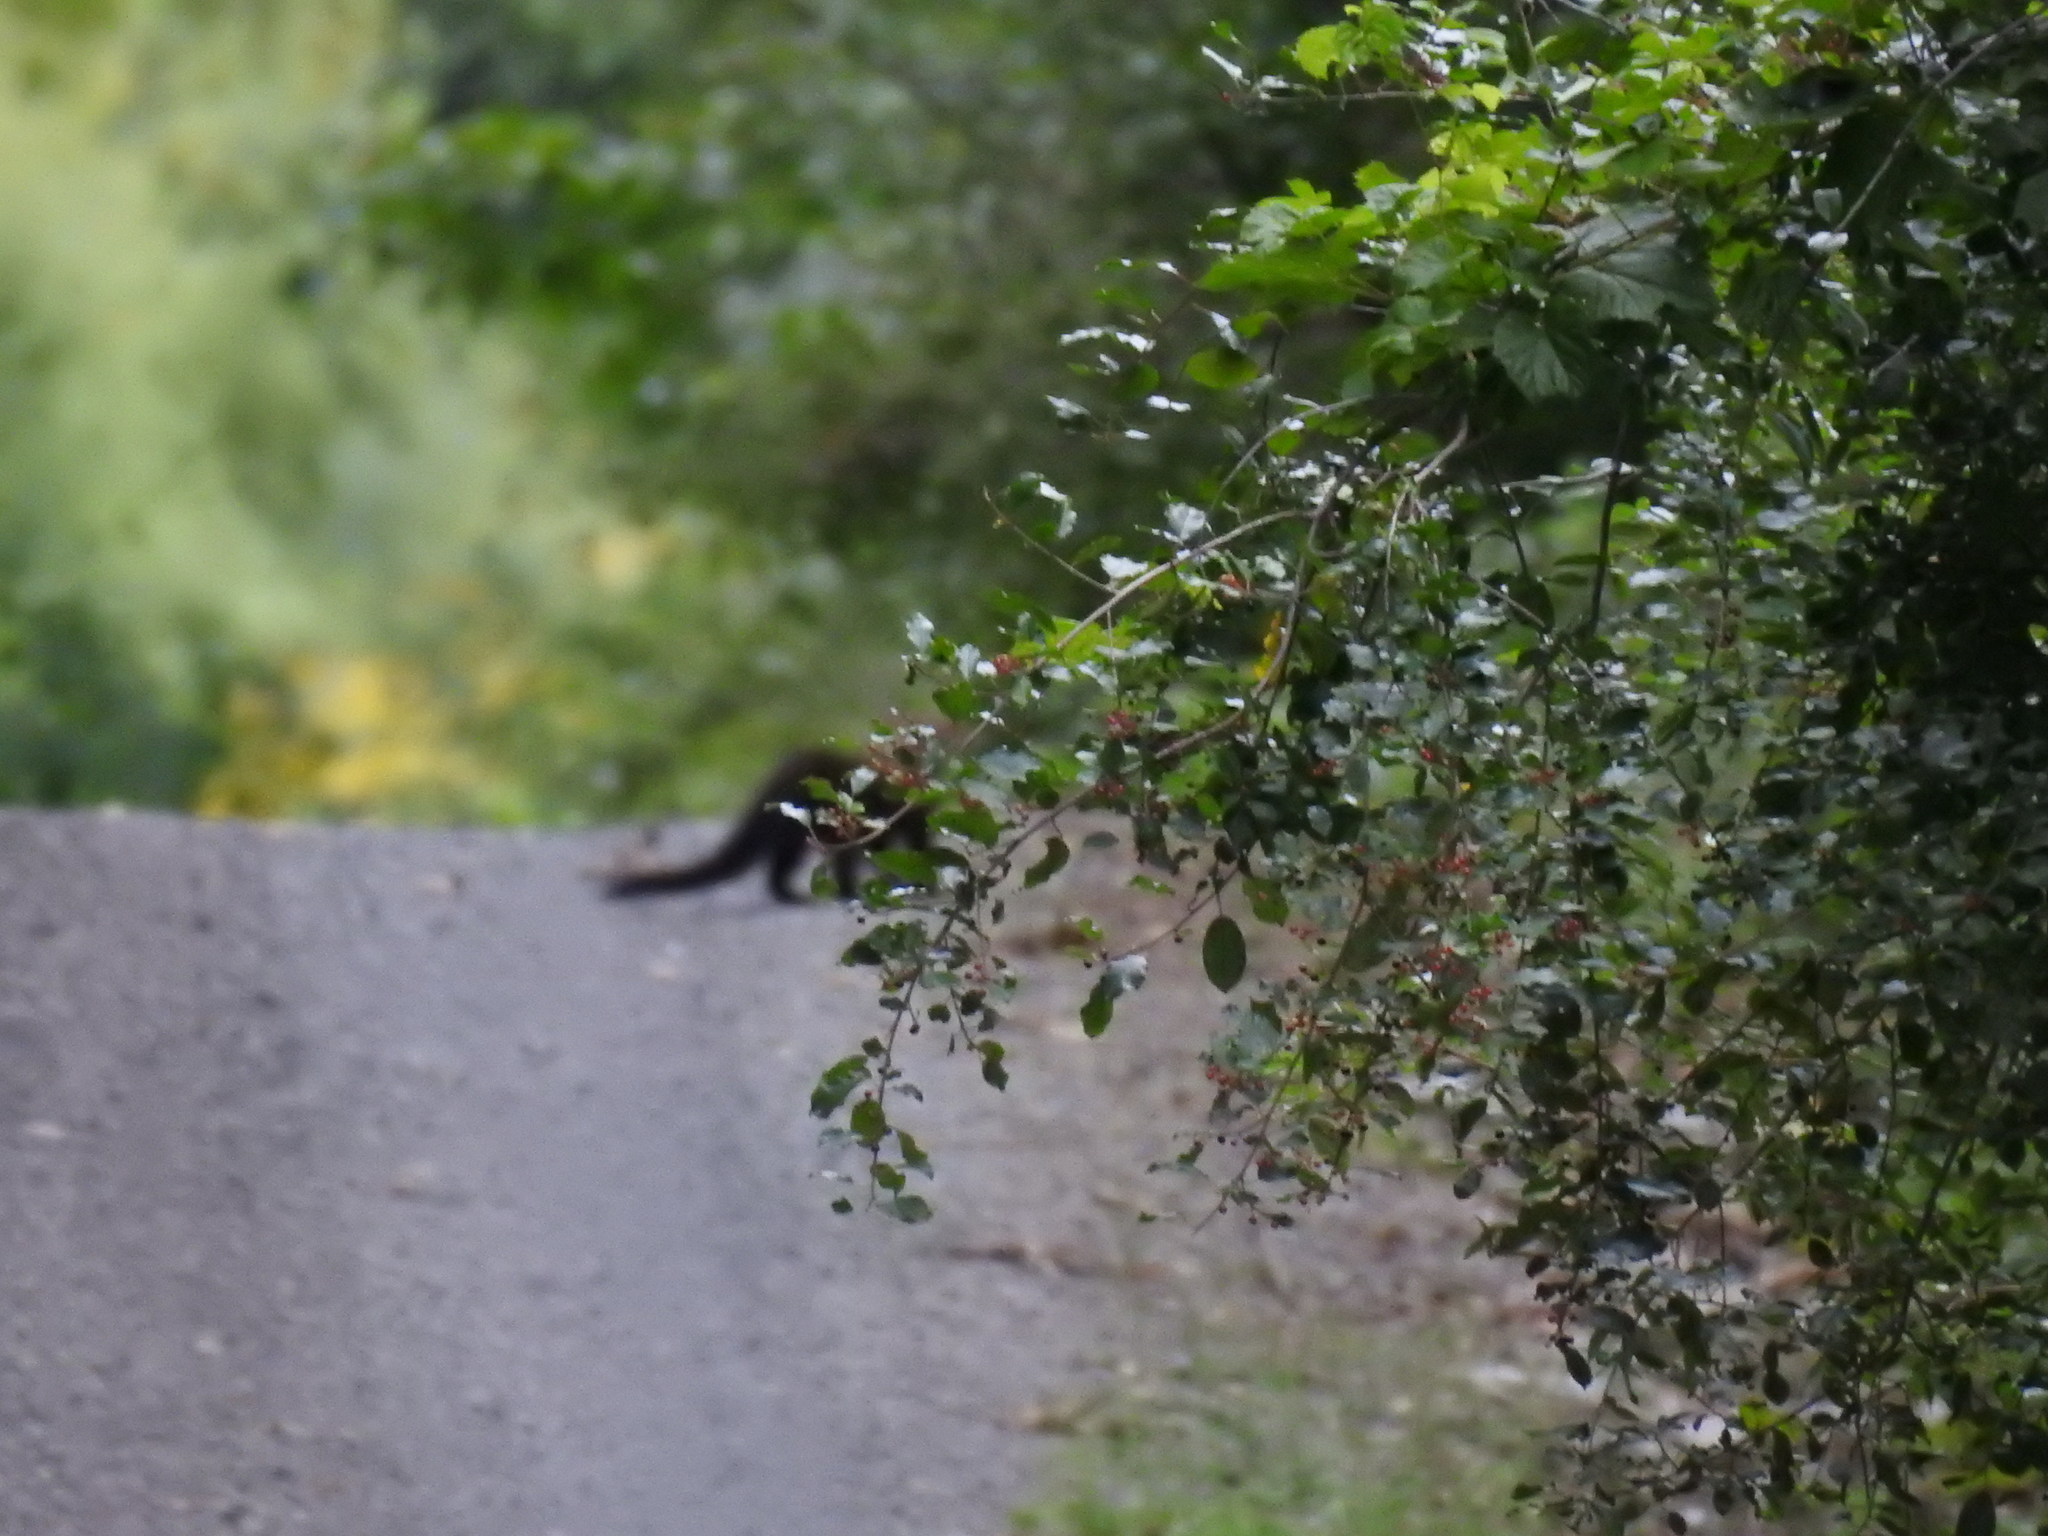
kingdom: Animalia
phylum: Chordata
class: Mammalia
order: Carnivora
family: Mustelidae
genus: Pekania
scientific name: Pekania pennanti
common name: Fisher
